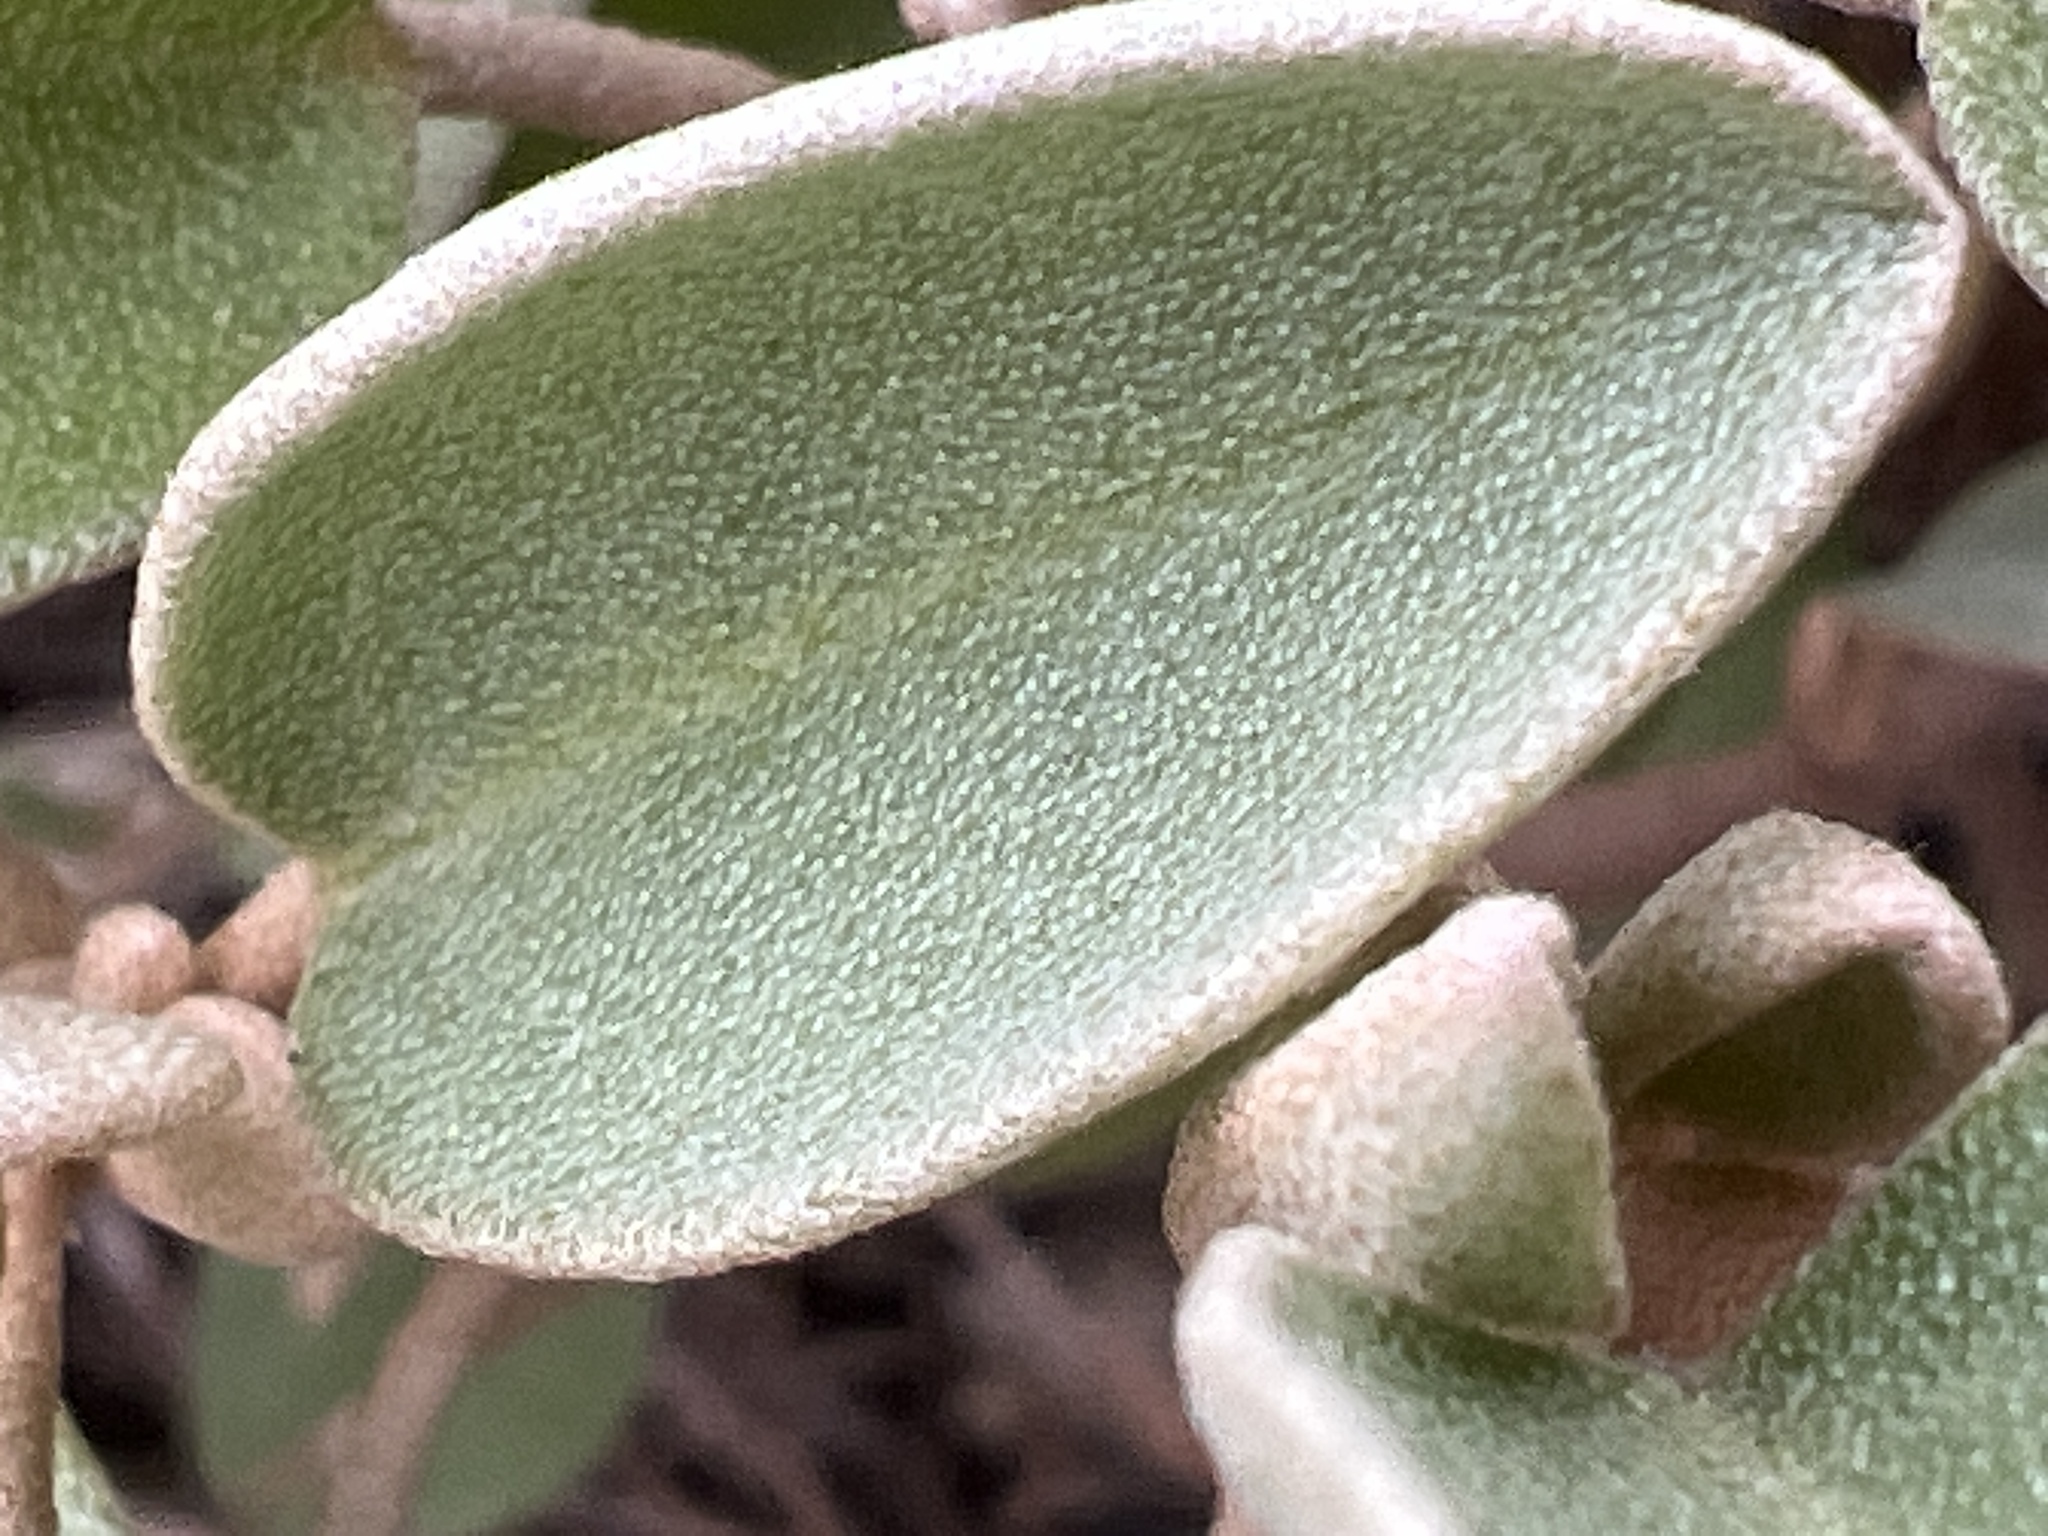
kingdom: Plantae
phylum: Tracheophyta
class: Magnoliopsida
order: Malpighiales
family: Euphorbiaceae
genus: Croton
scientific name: Croton punctatus
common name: Beach-tea
